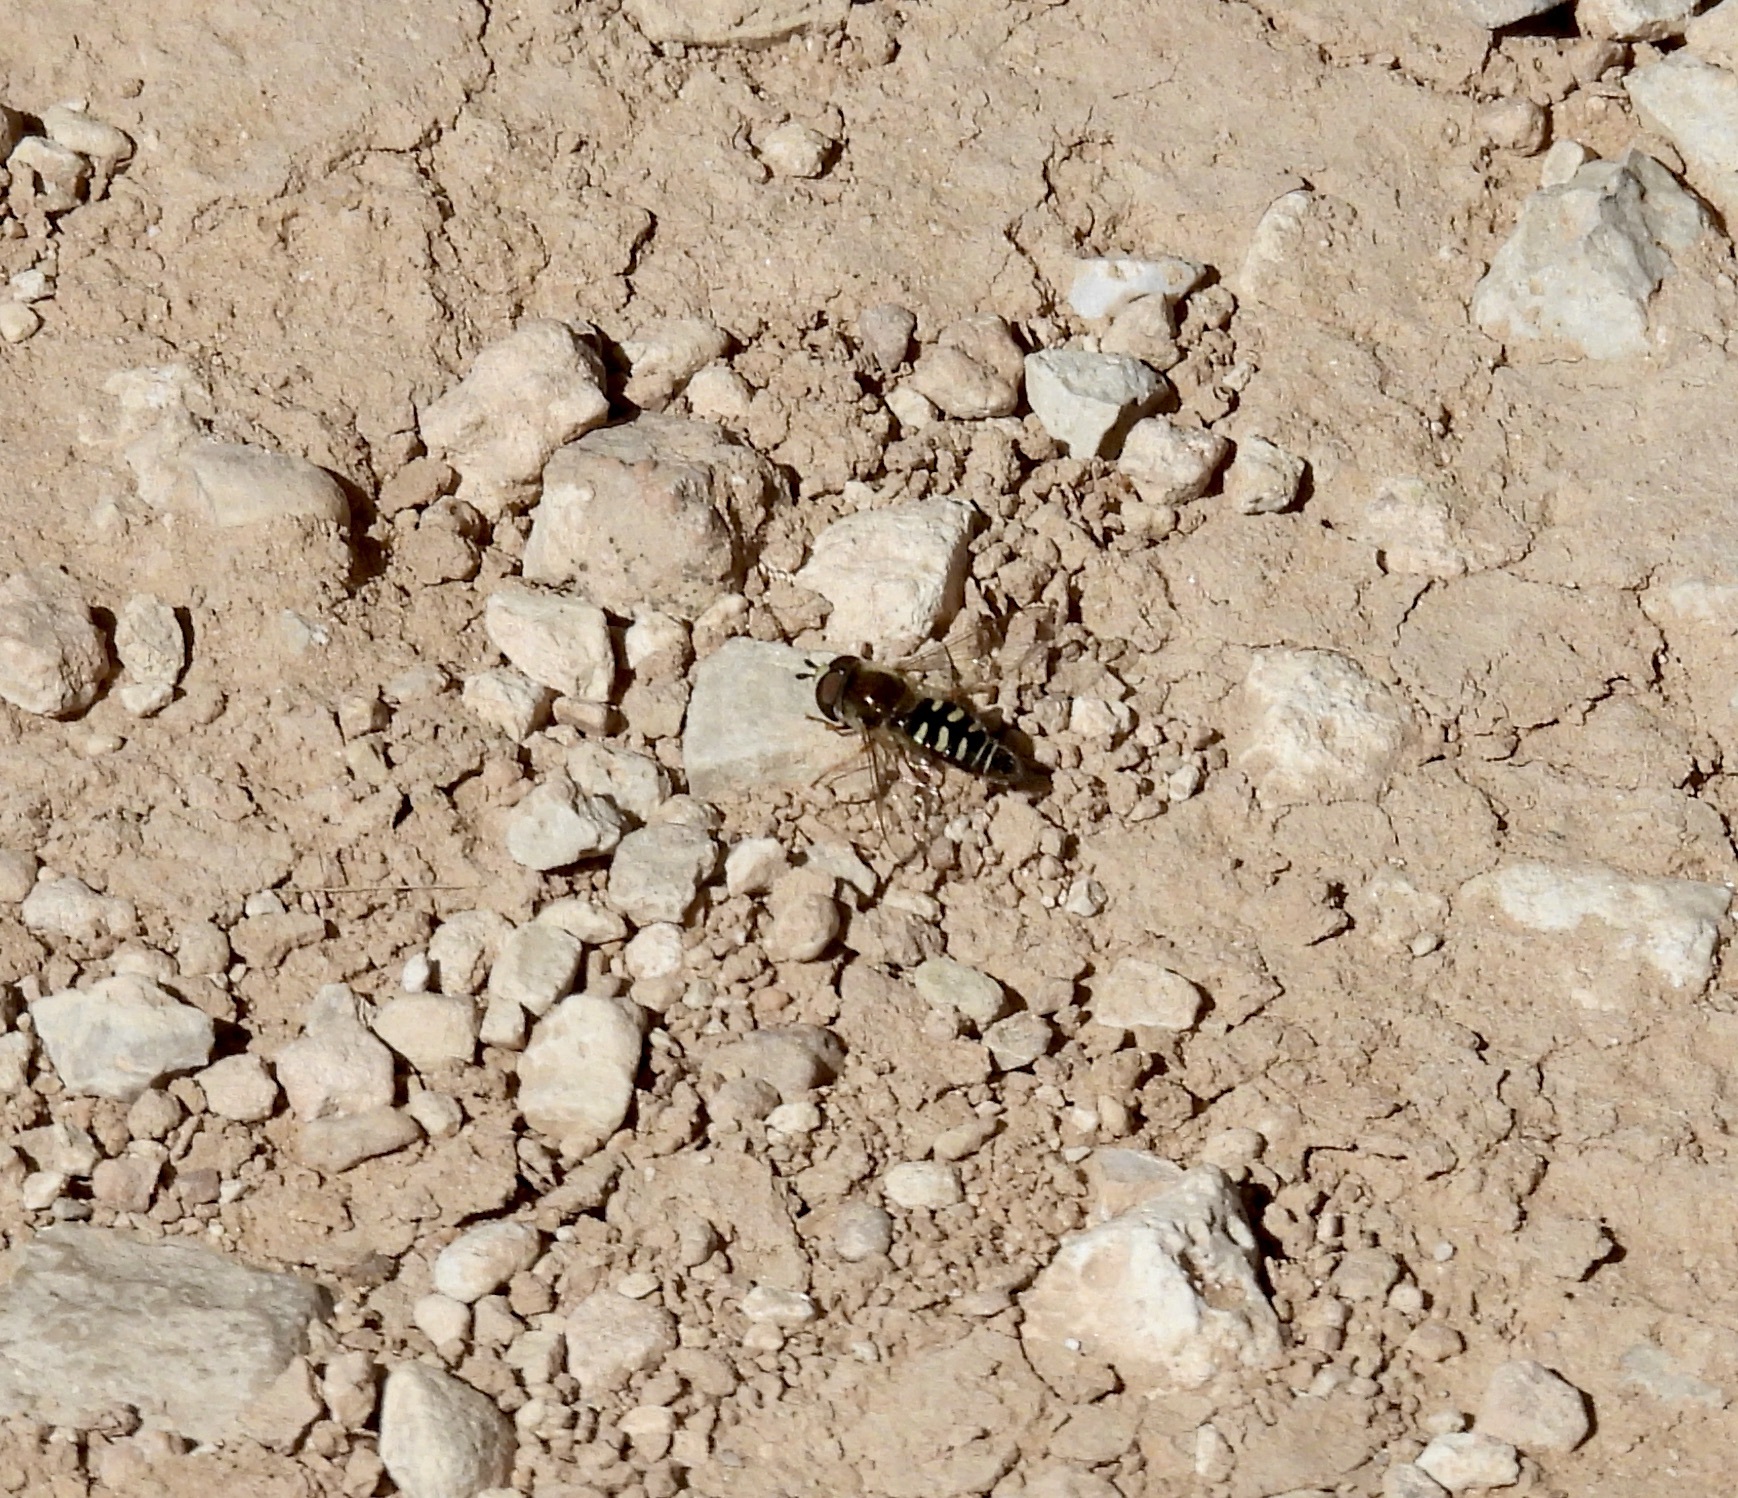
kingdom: Animalia
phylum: Arthropoda
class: Insecta
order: Diptera
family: Syrphidae
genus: Eupeodes
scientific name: Eupeodes volucris
